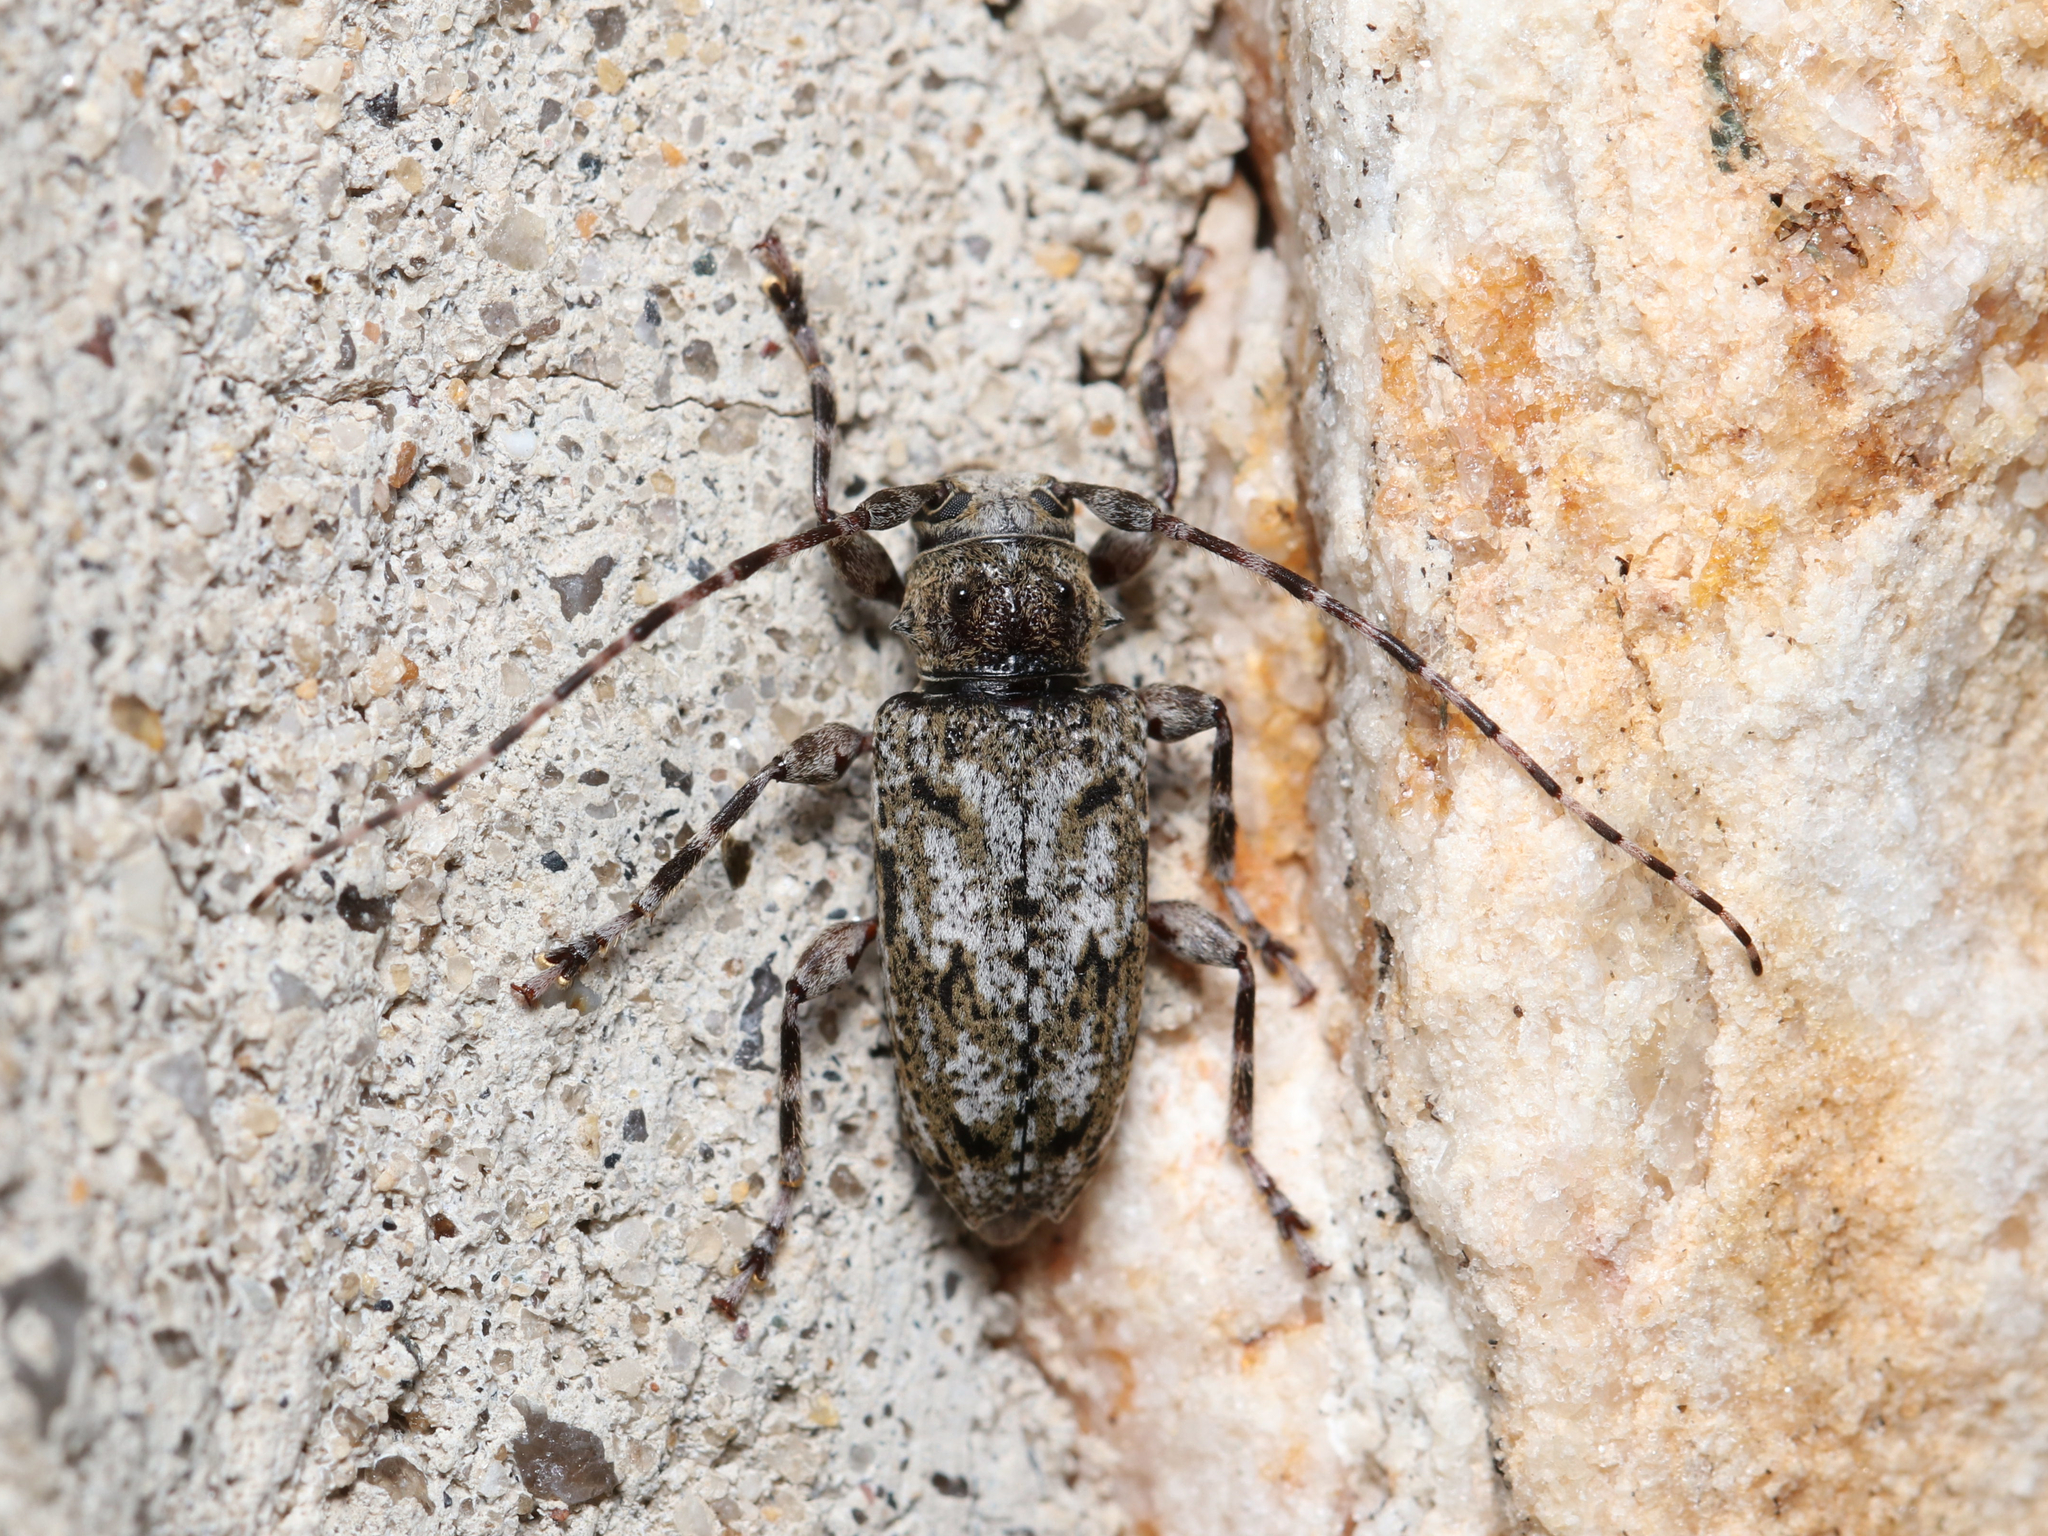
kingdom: Animalia
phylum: Arthropoda
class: Insecta
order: Coleoptera
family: Cerambycidae
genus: Aegomorphus
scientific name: Aegomorphus modestus
